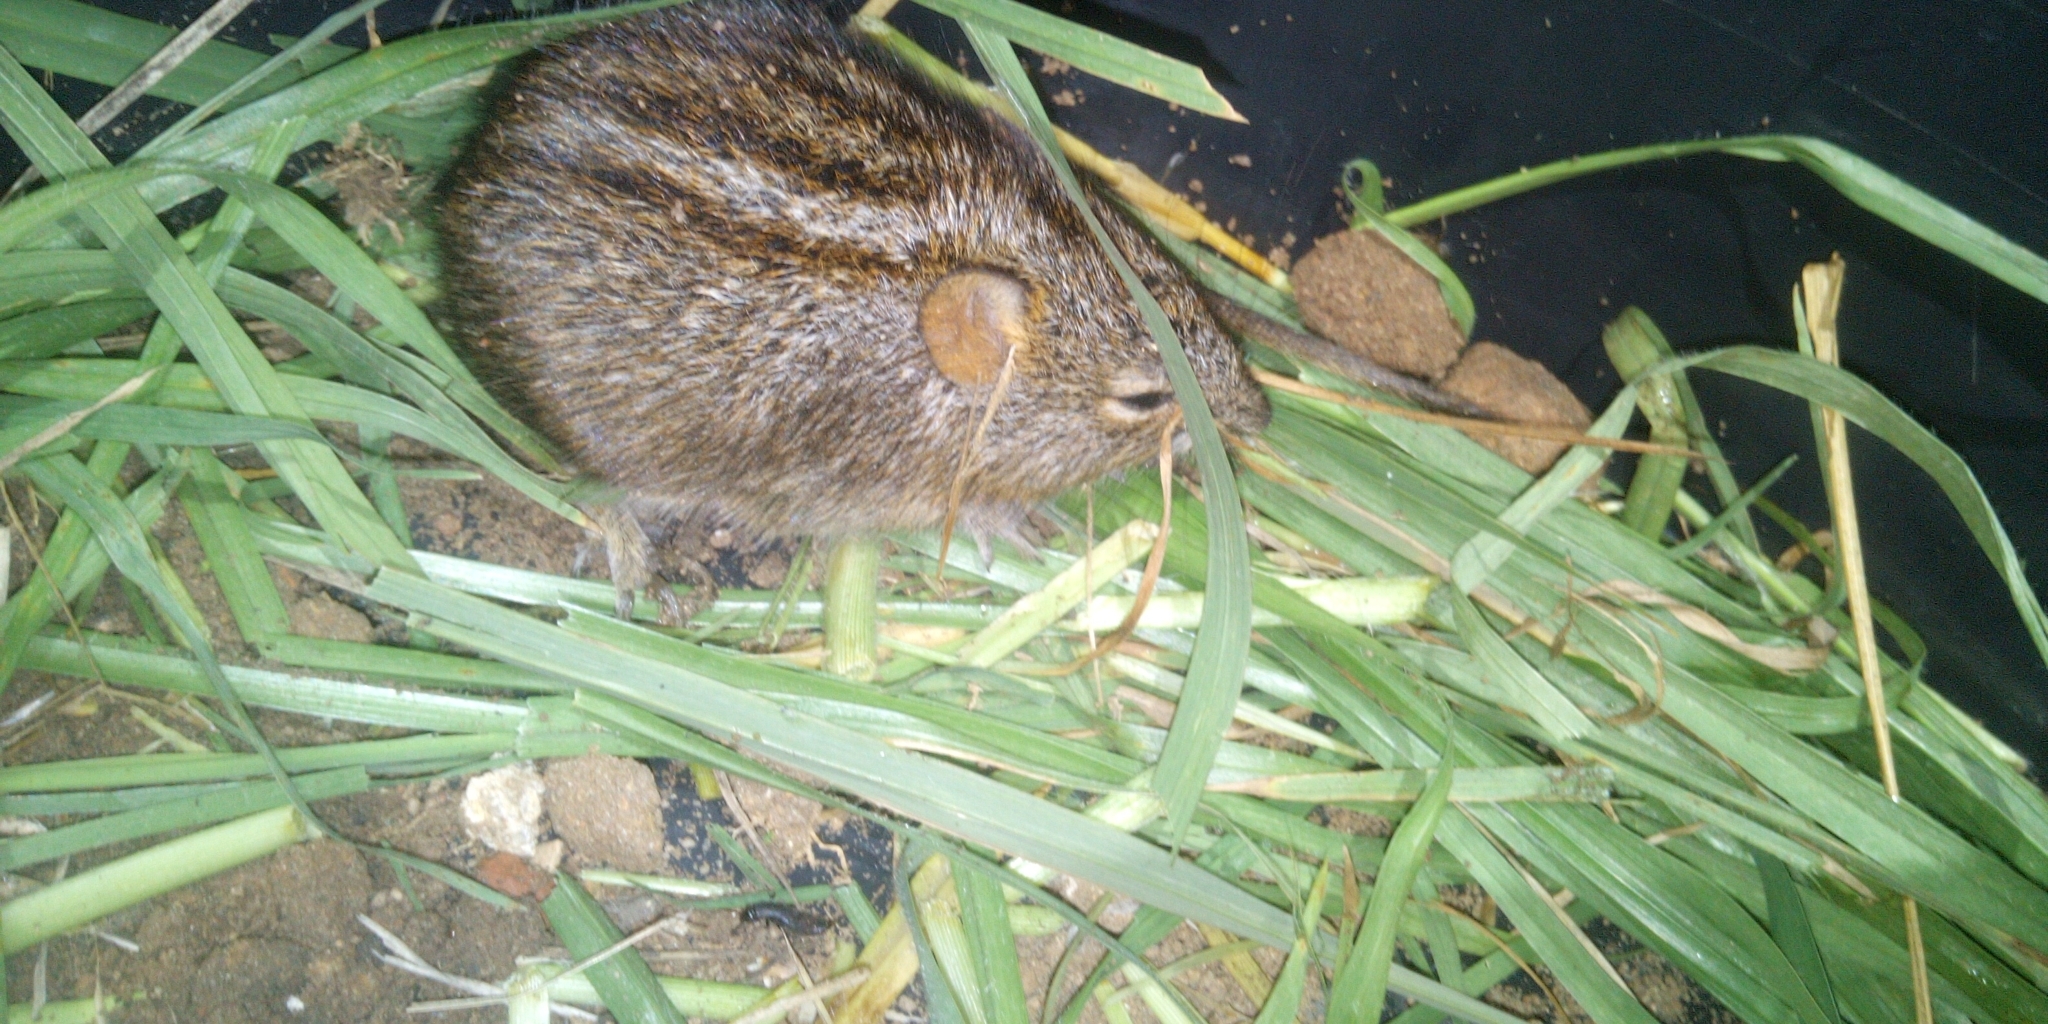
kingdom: Animalia
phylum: Chordata
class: Mammalia
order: Rodentia
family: Muridae
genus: Rhabdomys
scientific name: Rhabdomys pumilio
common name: Xeric four-striped grass rat
